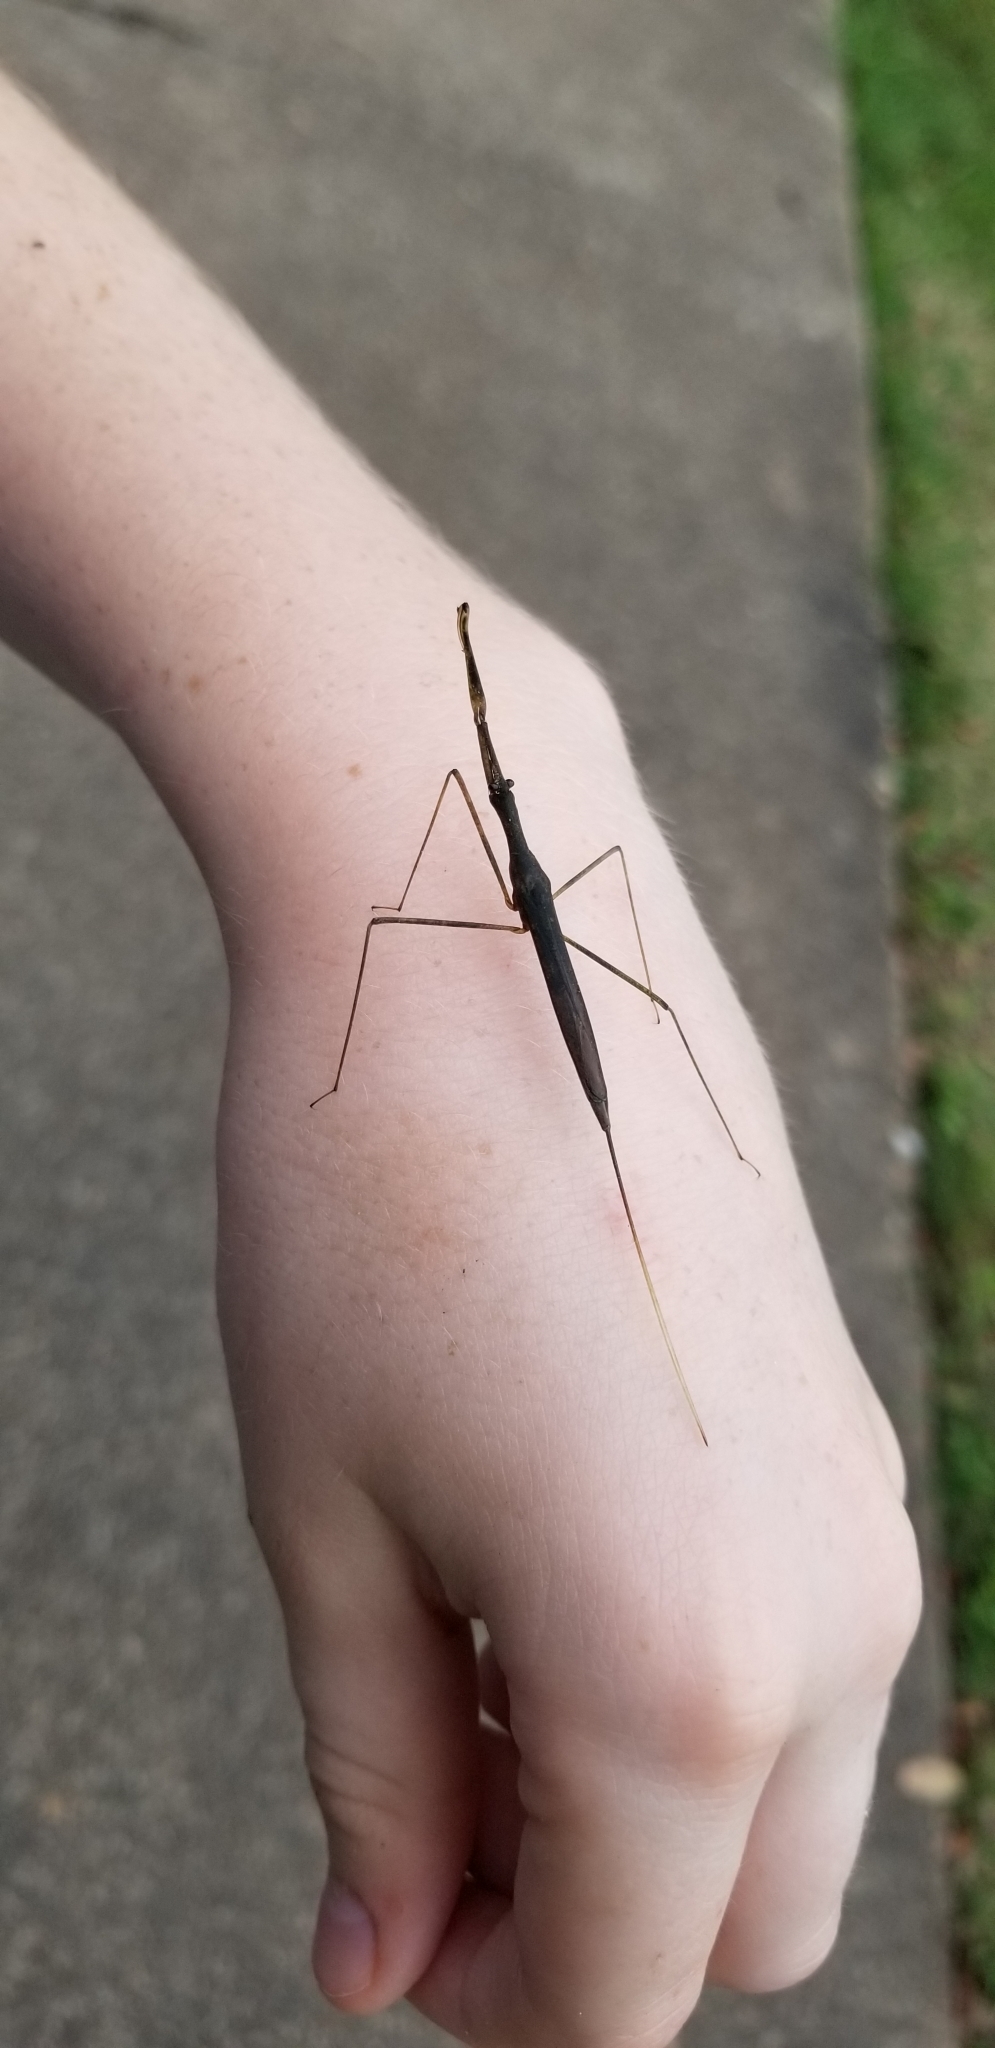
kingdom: Animalia
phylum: Arthropoda
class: Insecta
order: Hemiptera
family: Nepidae
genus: Ranatra
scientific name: Ranatra
